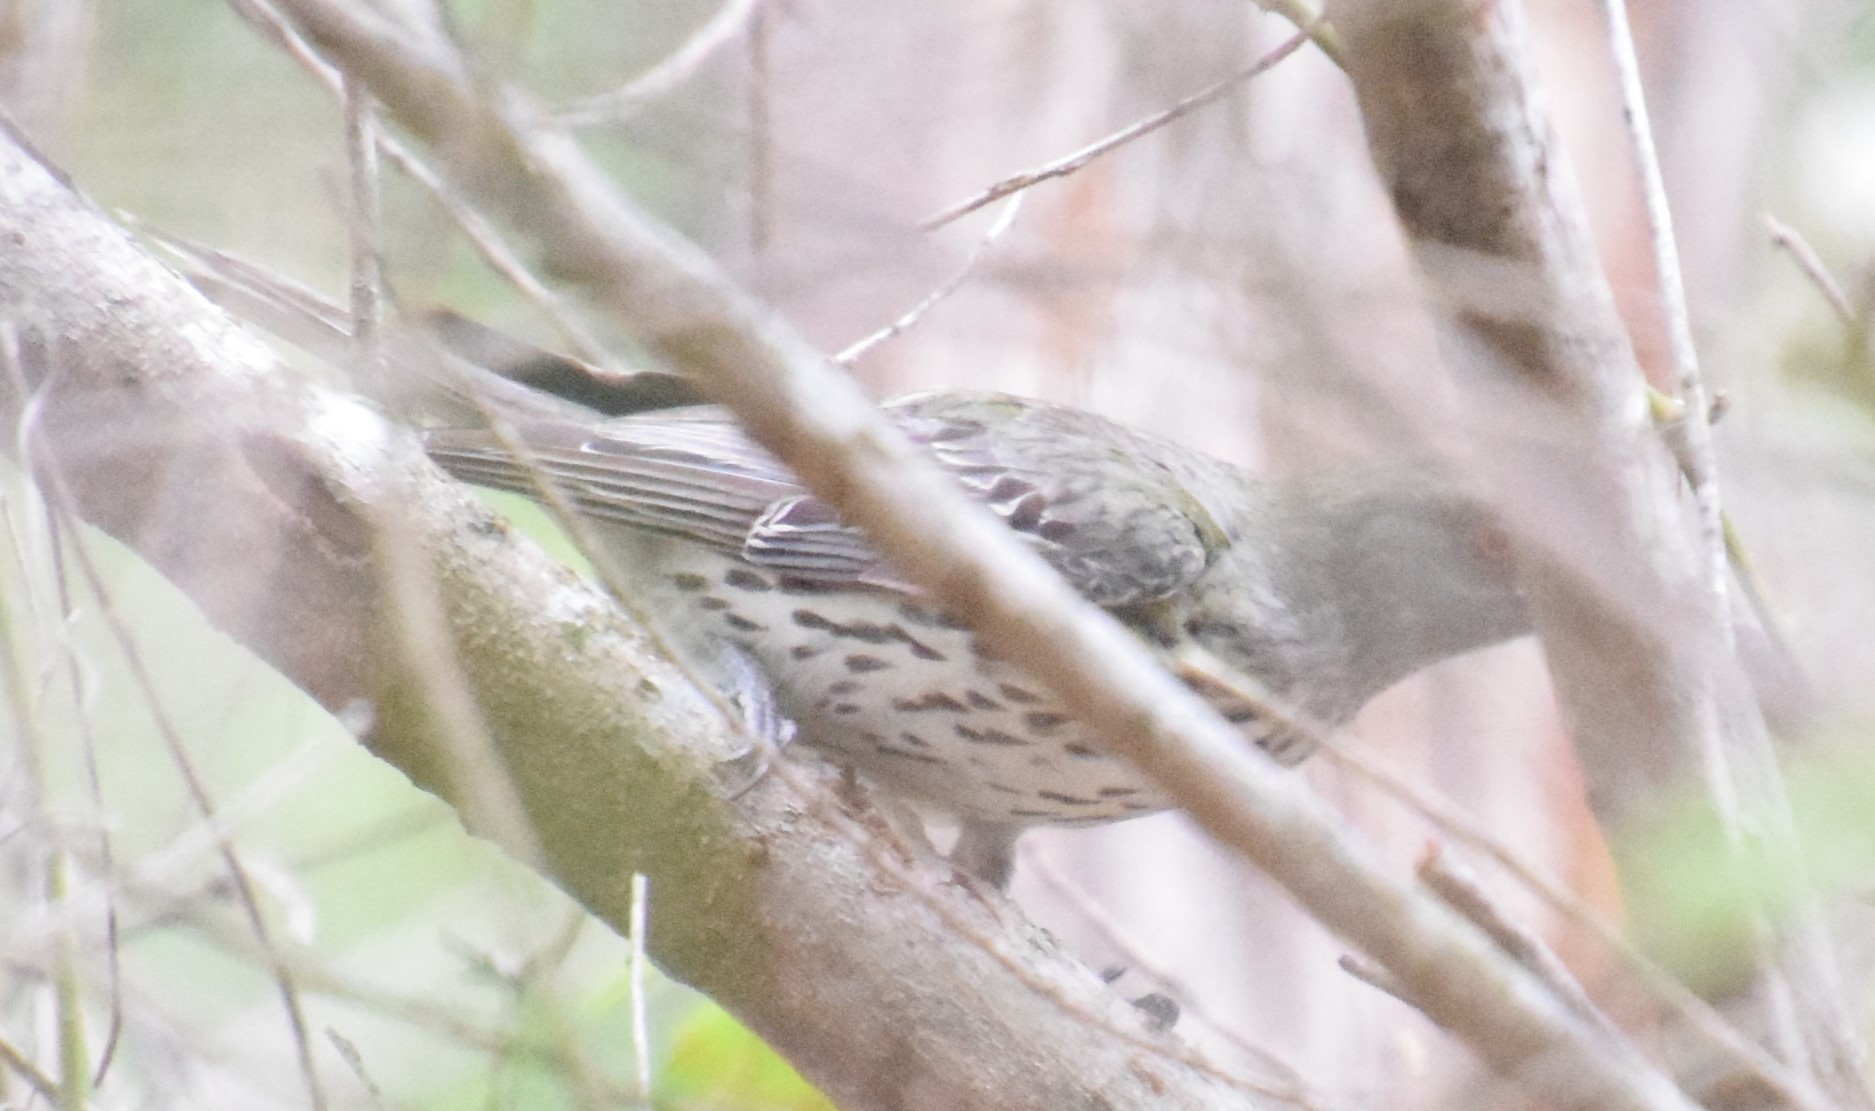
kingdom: Animalia
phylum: Chordata
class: Aves
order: Passeriformes
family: Oriolidae
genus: Oriolus
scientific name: Oriolus sagittatus
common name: Olive-backed oriole
